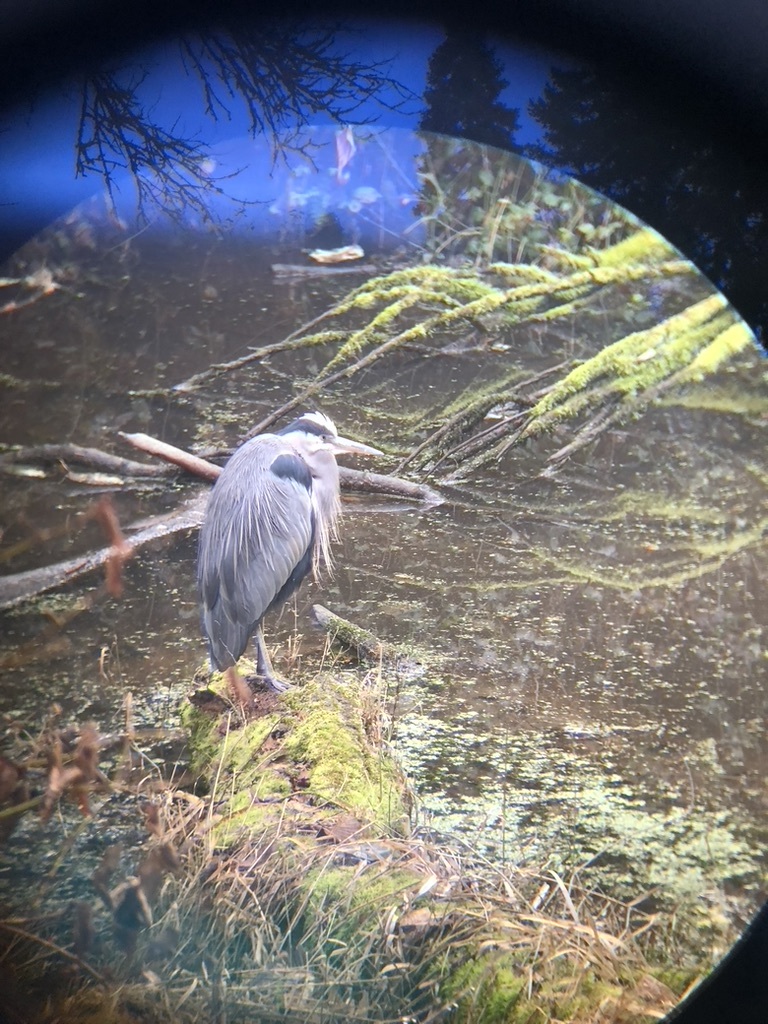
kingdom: Animalia
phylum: Chordata
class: Aves
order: Pelecaniformes
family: Ardeidae
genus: Ardea
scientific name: Ardea herodias
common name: Great blue heron
